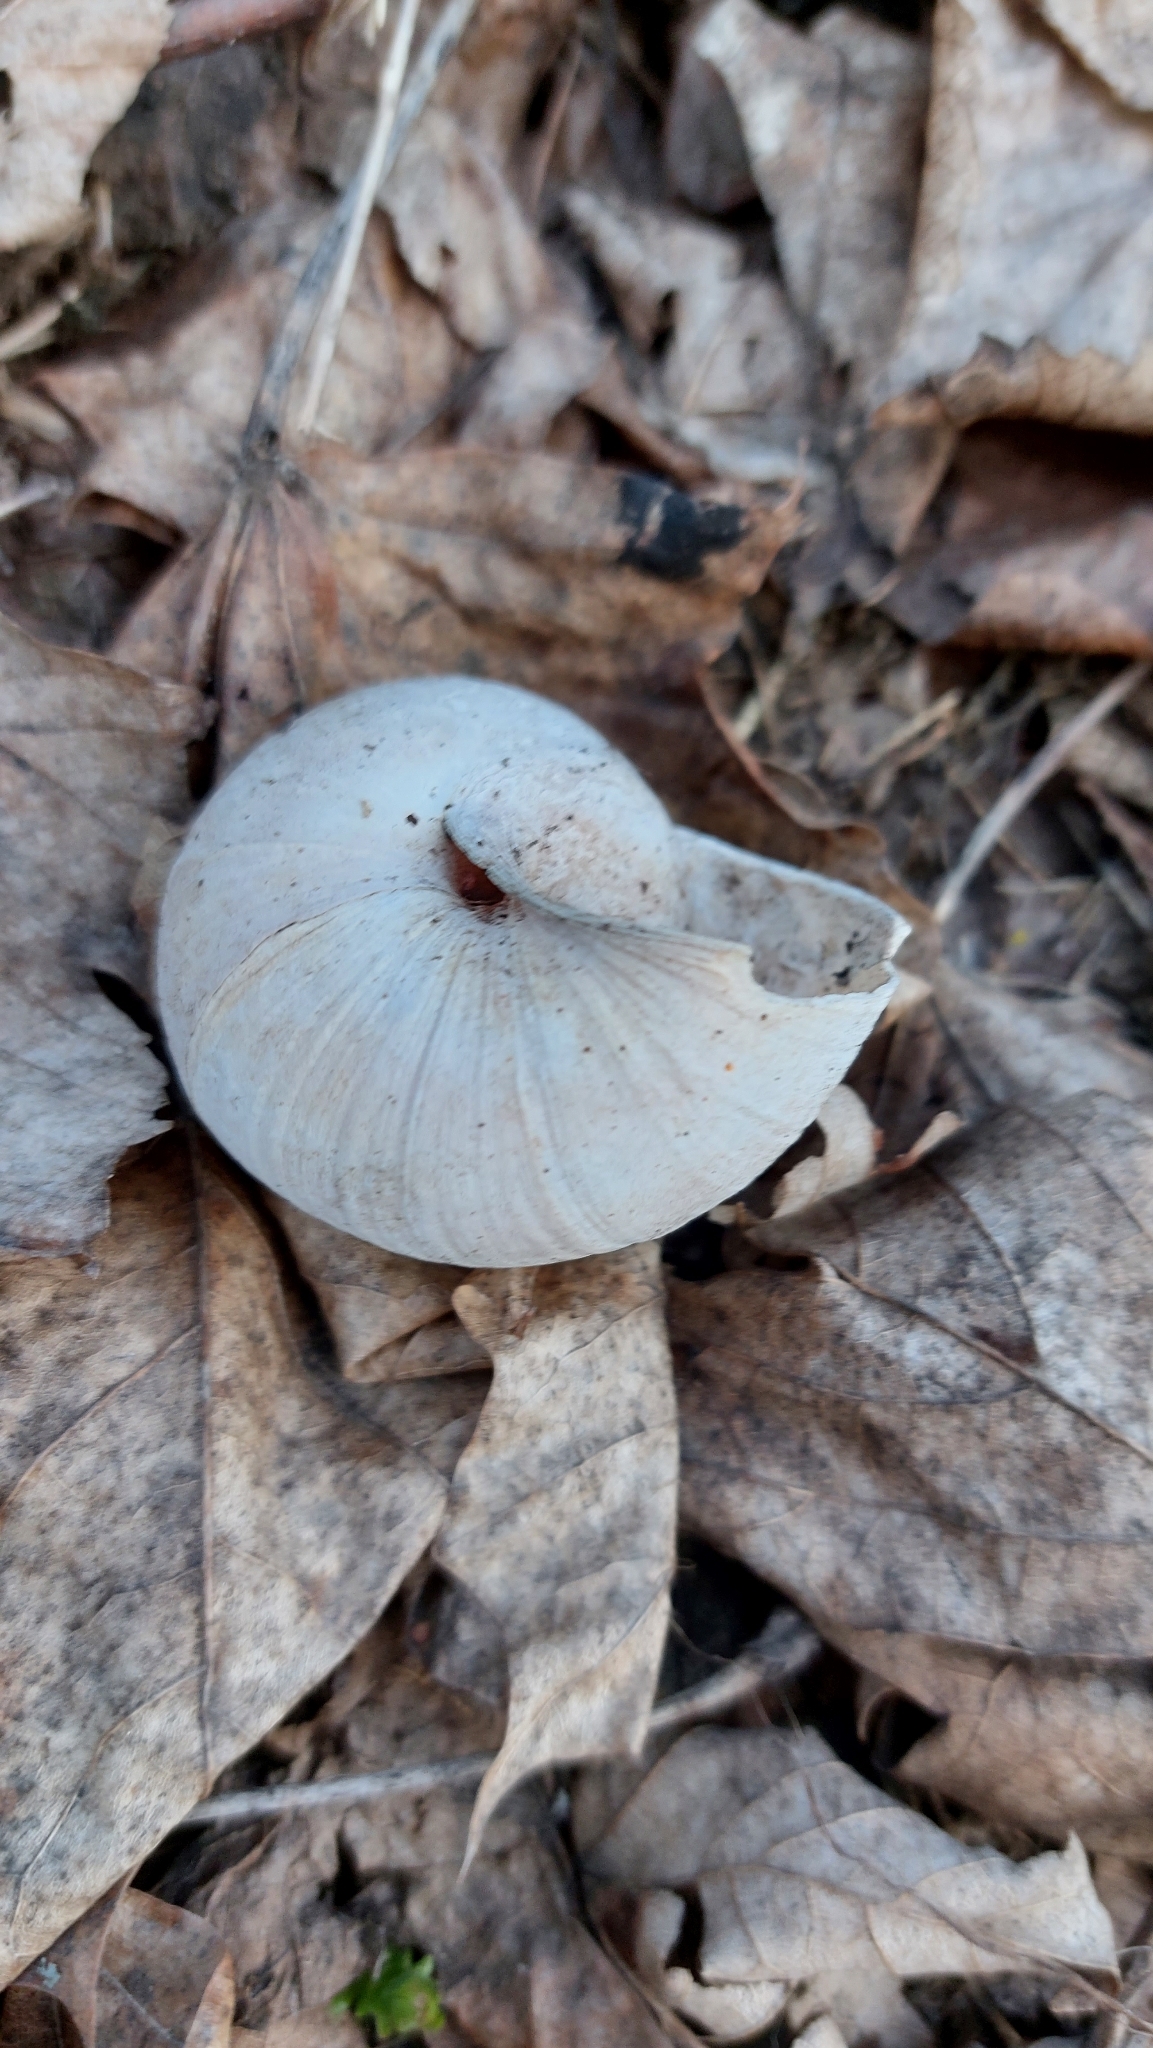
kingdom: Animalia
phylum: Mollusca
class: Gastropoda
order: Stylommatophora
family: Helicidae
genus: Helix
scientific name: Helix pomatia
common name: Roman snail
